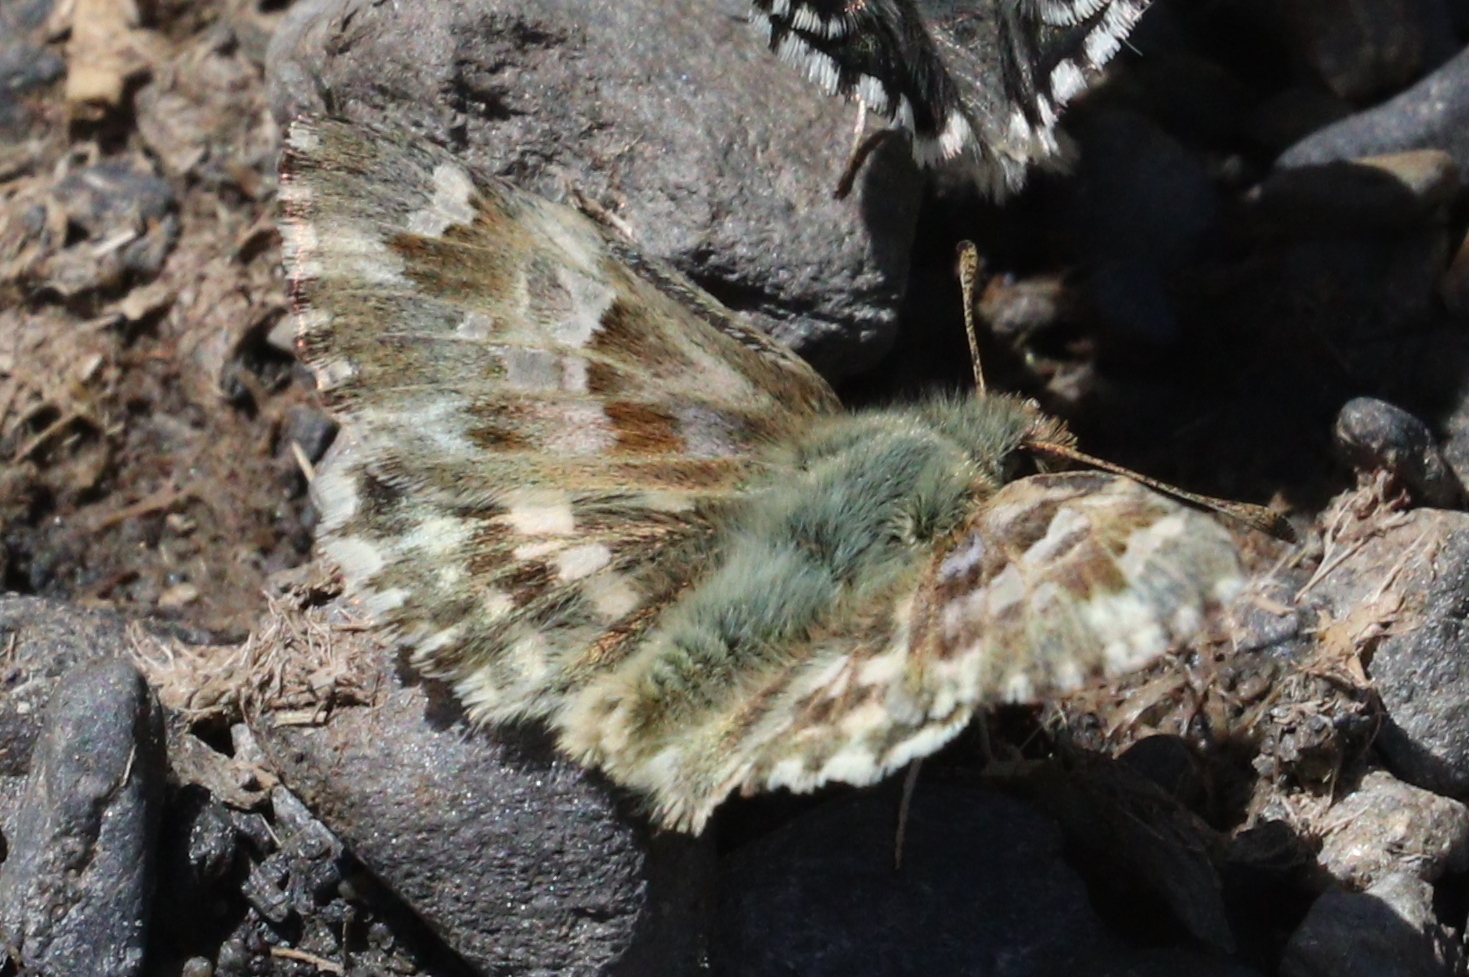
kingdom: Animalia
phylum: Arthropoda
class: Insecta
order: Lepidoptera
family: Hesperiidae
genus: Carcharodus
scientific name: Carcharodus lavatherae
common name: Marbled skipper
